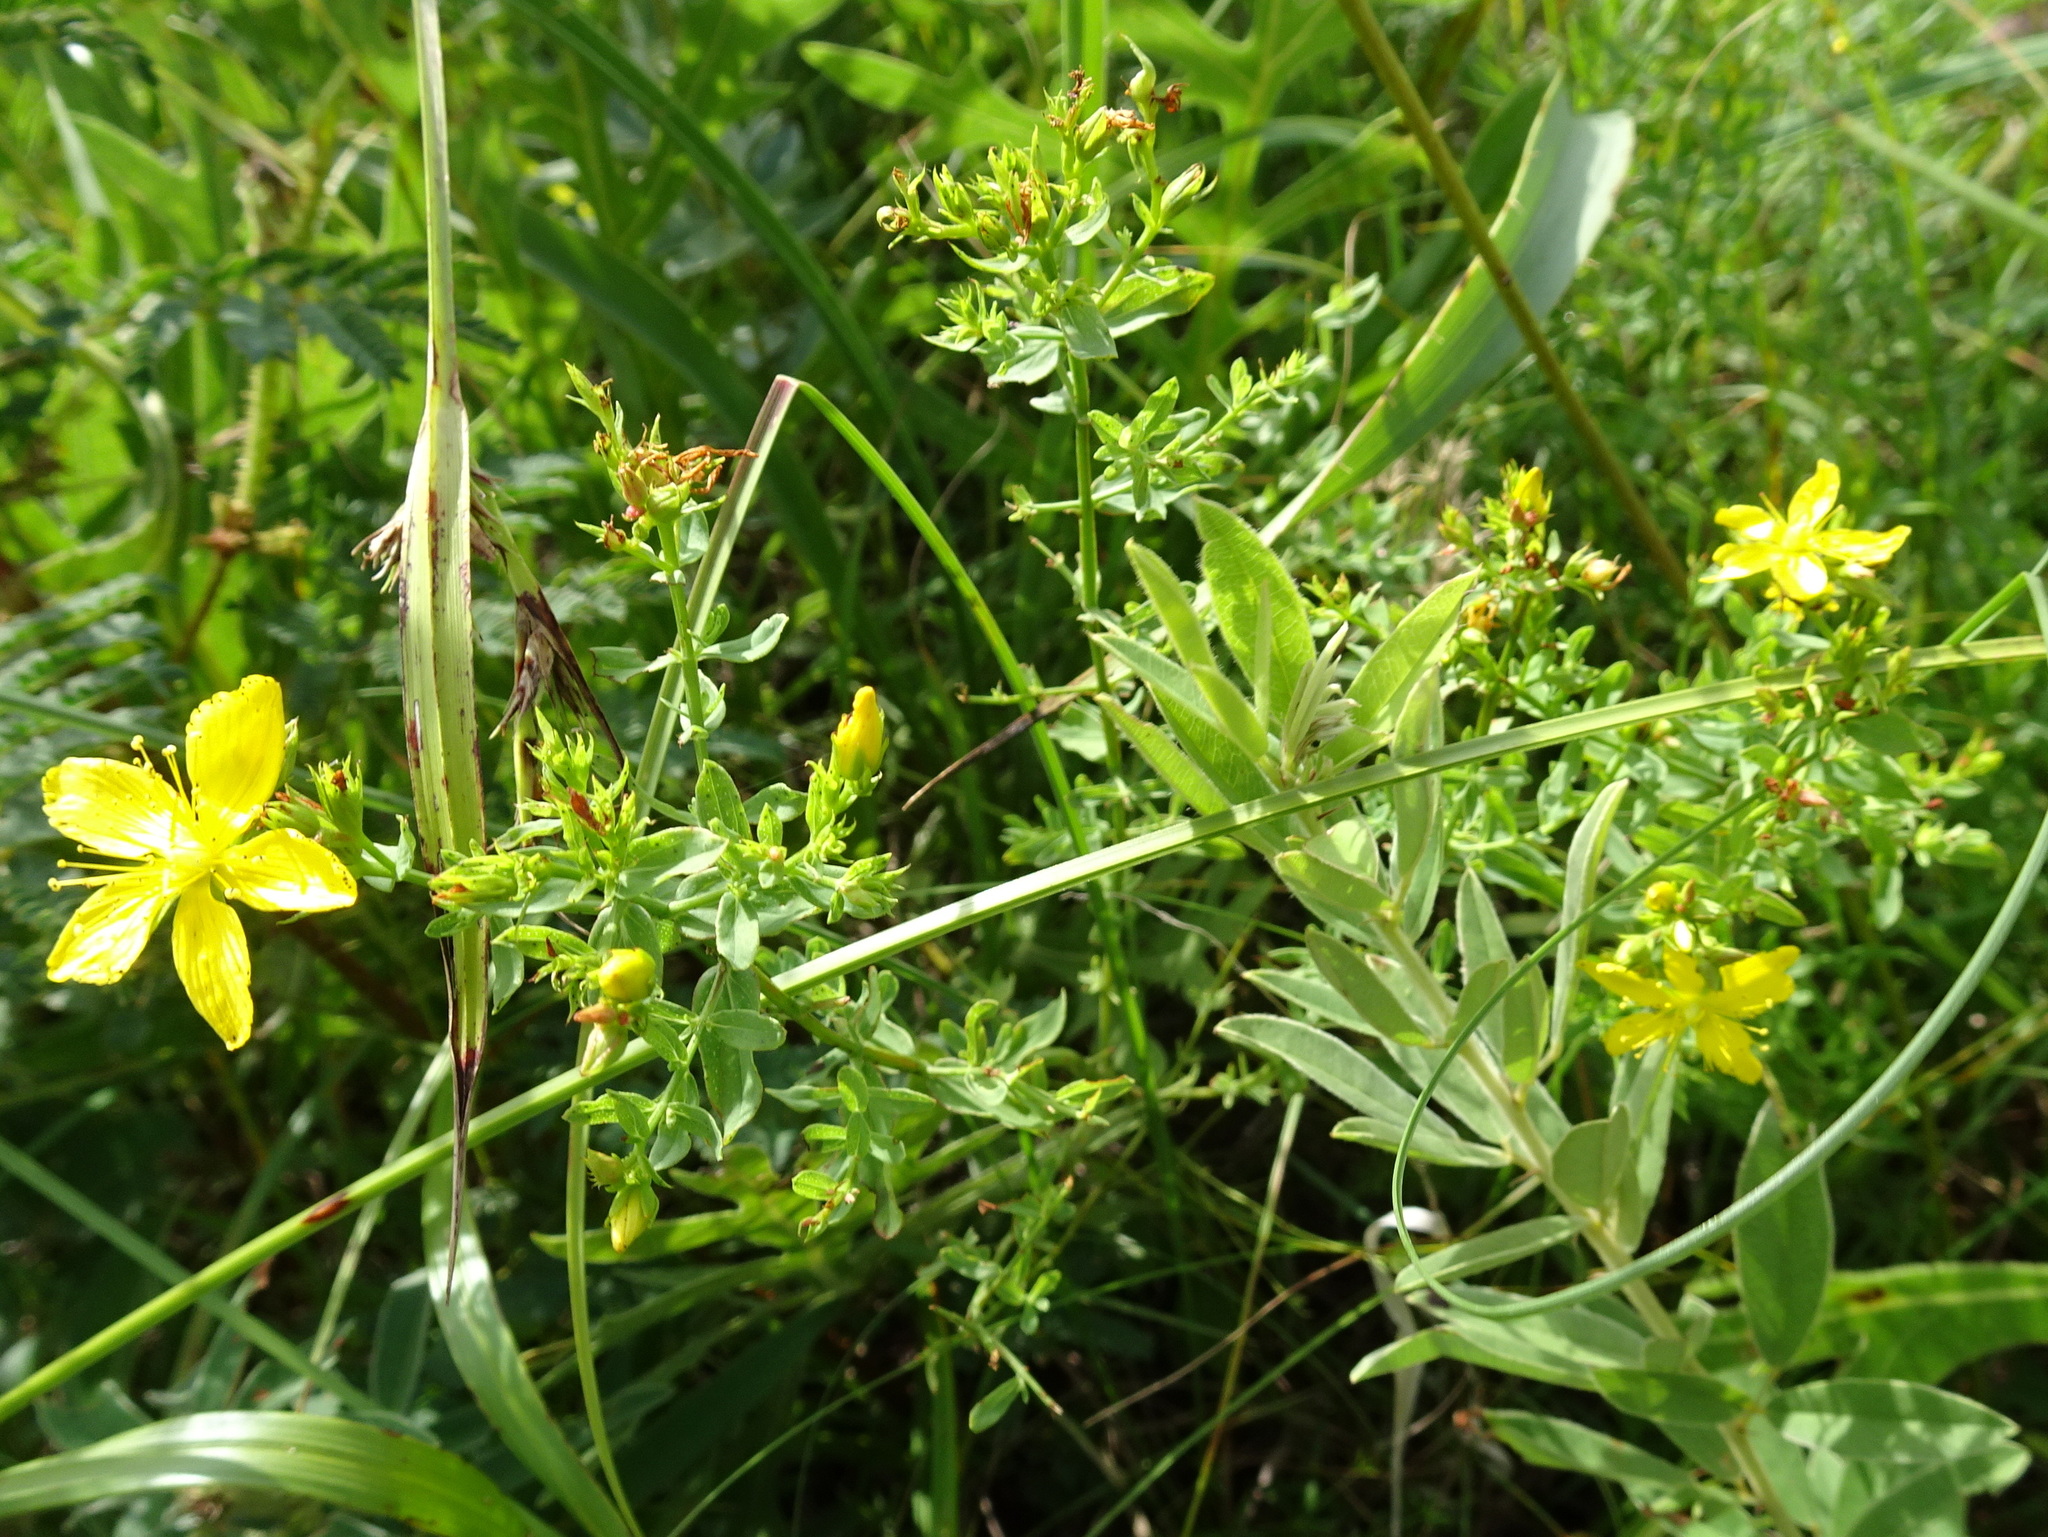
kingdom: Plantae
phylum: Tracheophyta
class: Magnoliopsida
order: Malpighiales
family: Hypericaceae
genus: Hypericum
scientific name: Hypericum perforatum
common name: Common st. johnswort
